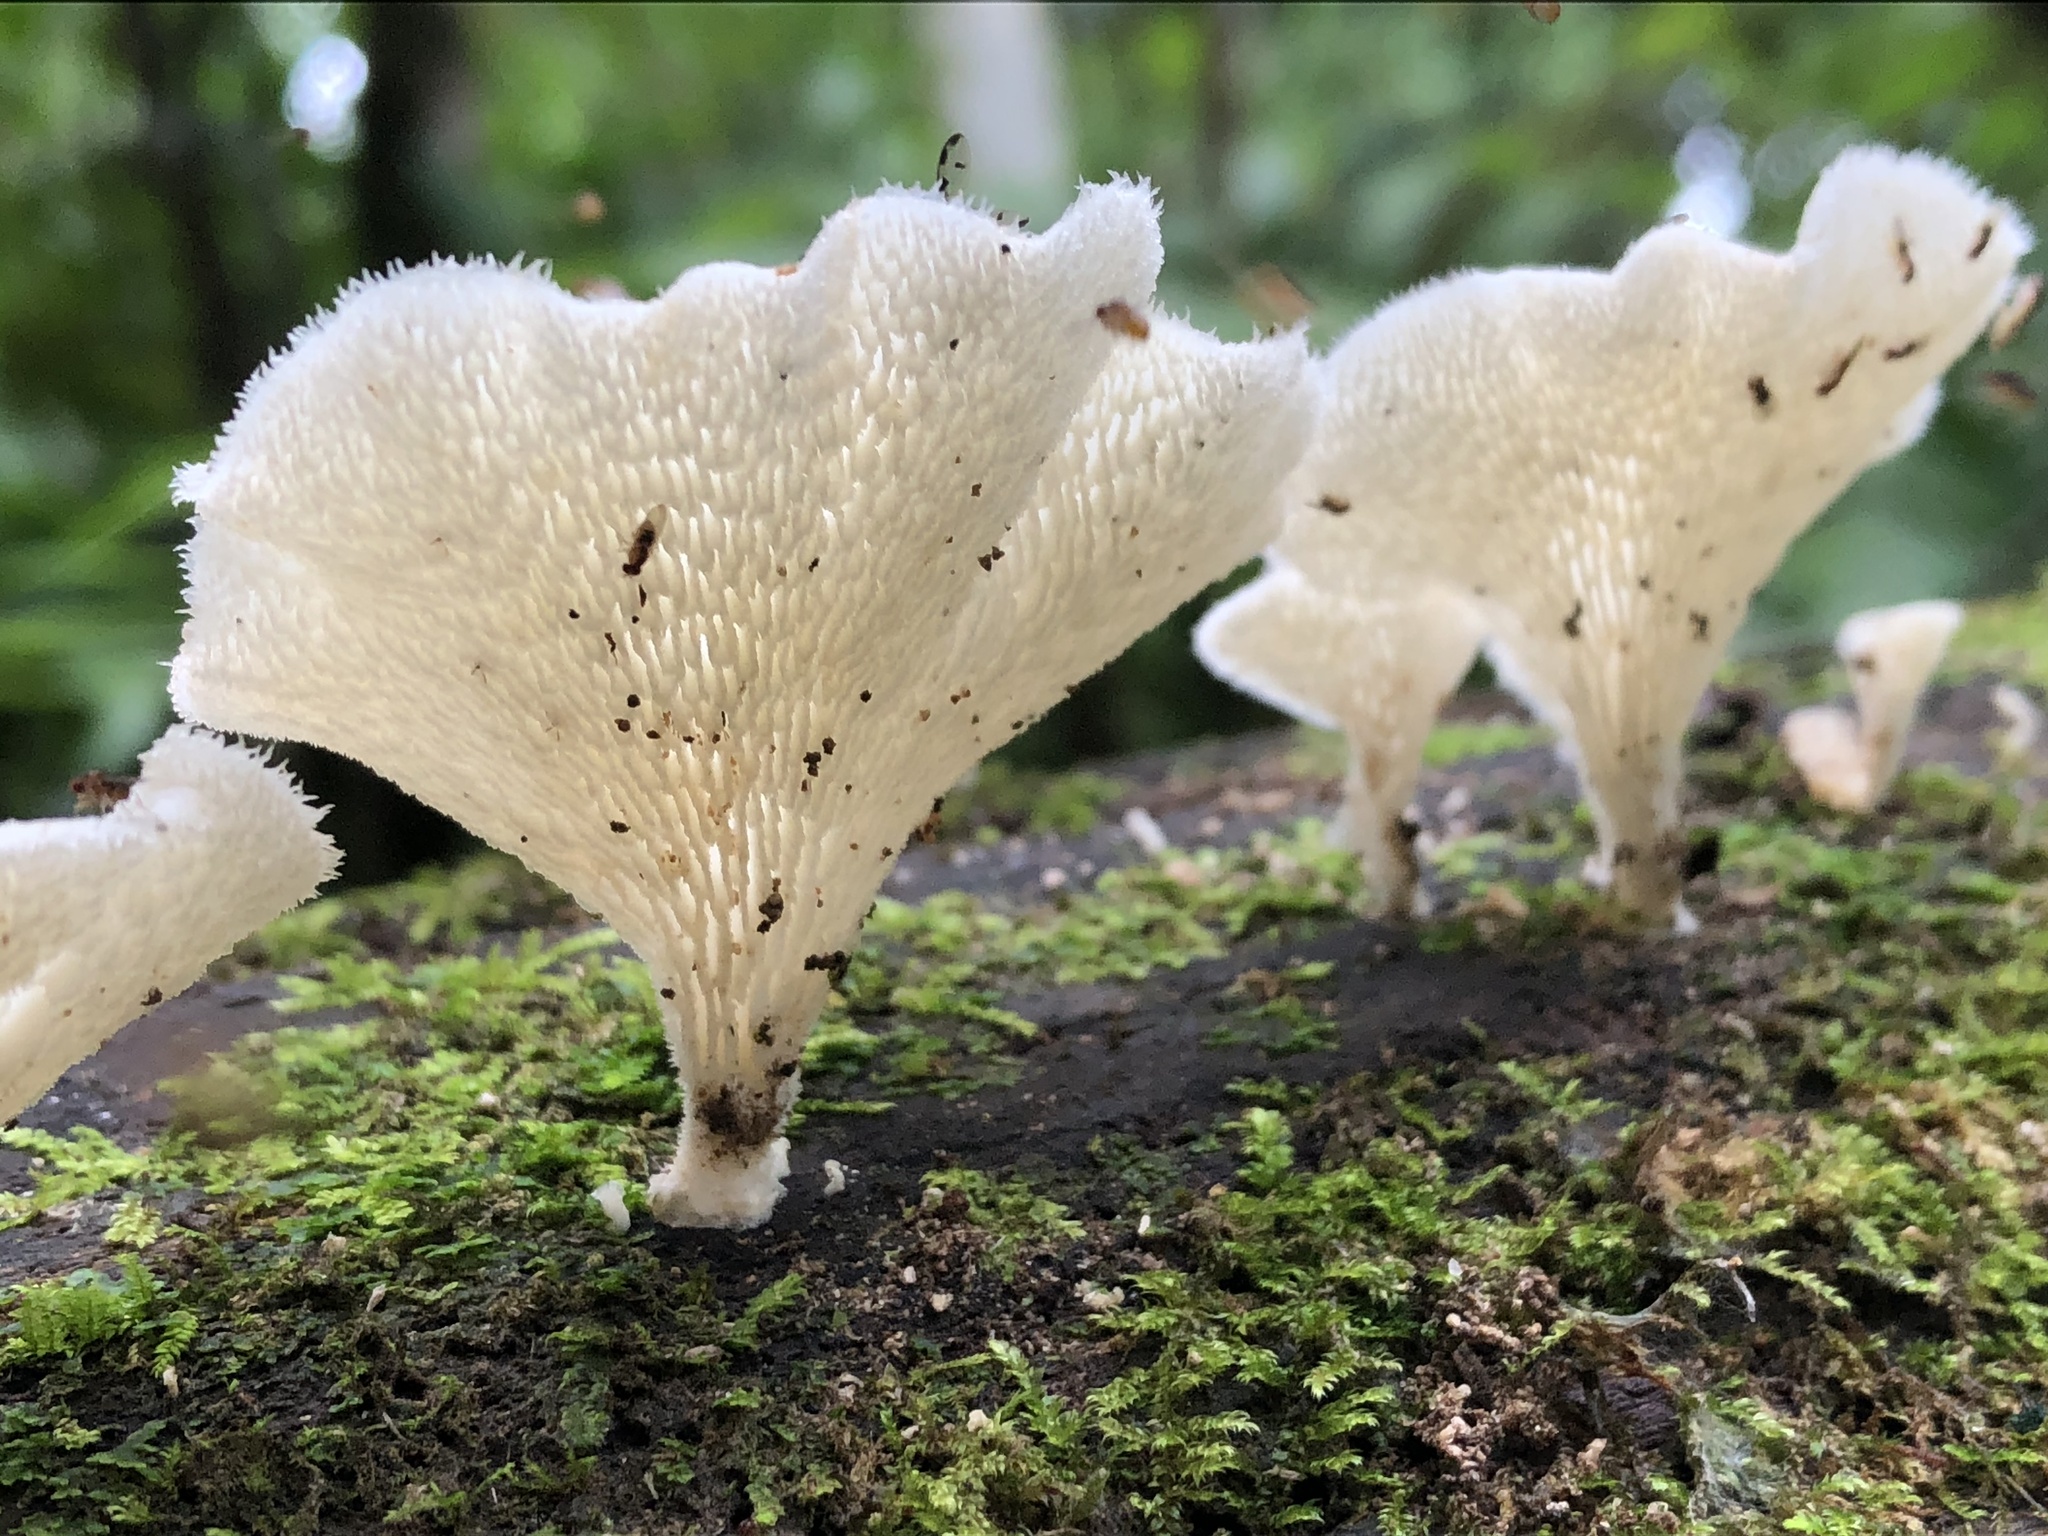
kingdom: Fungi
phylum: Basidiomycota
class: Agaricomycetes
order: Polyporales
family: Polyporaceae
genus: Favolus
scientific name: Favolus tenuiculus
